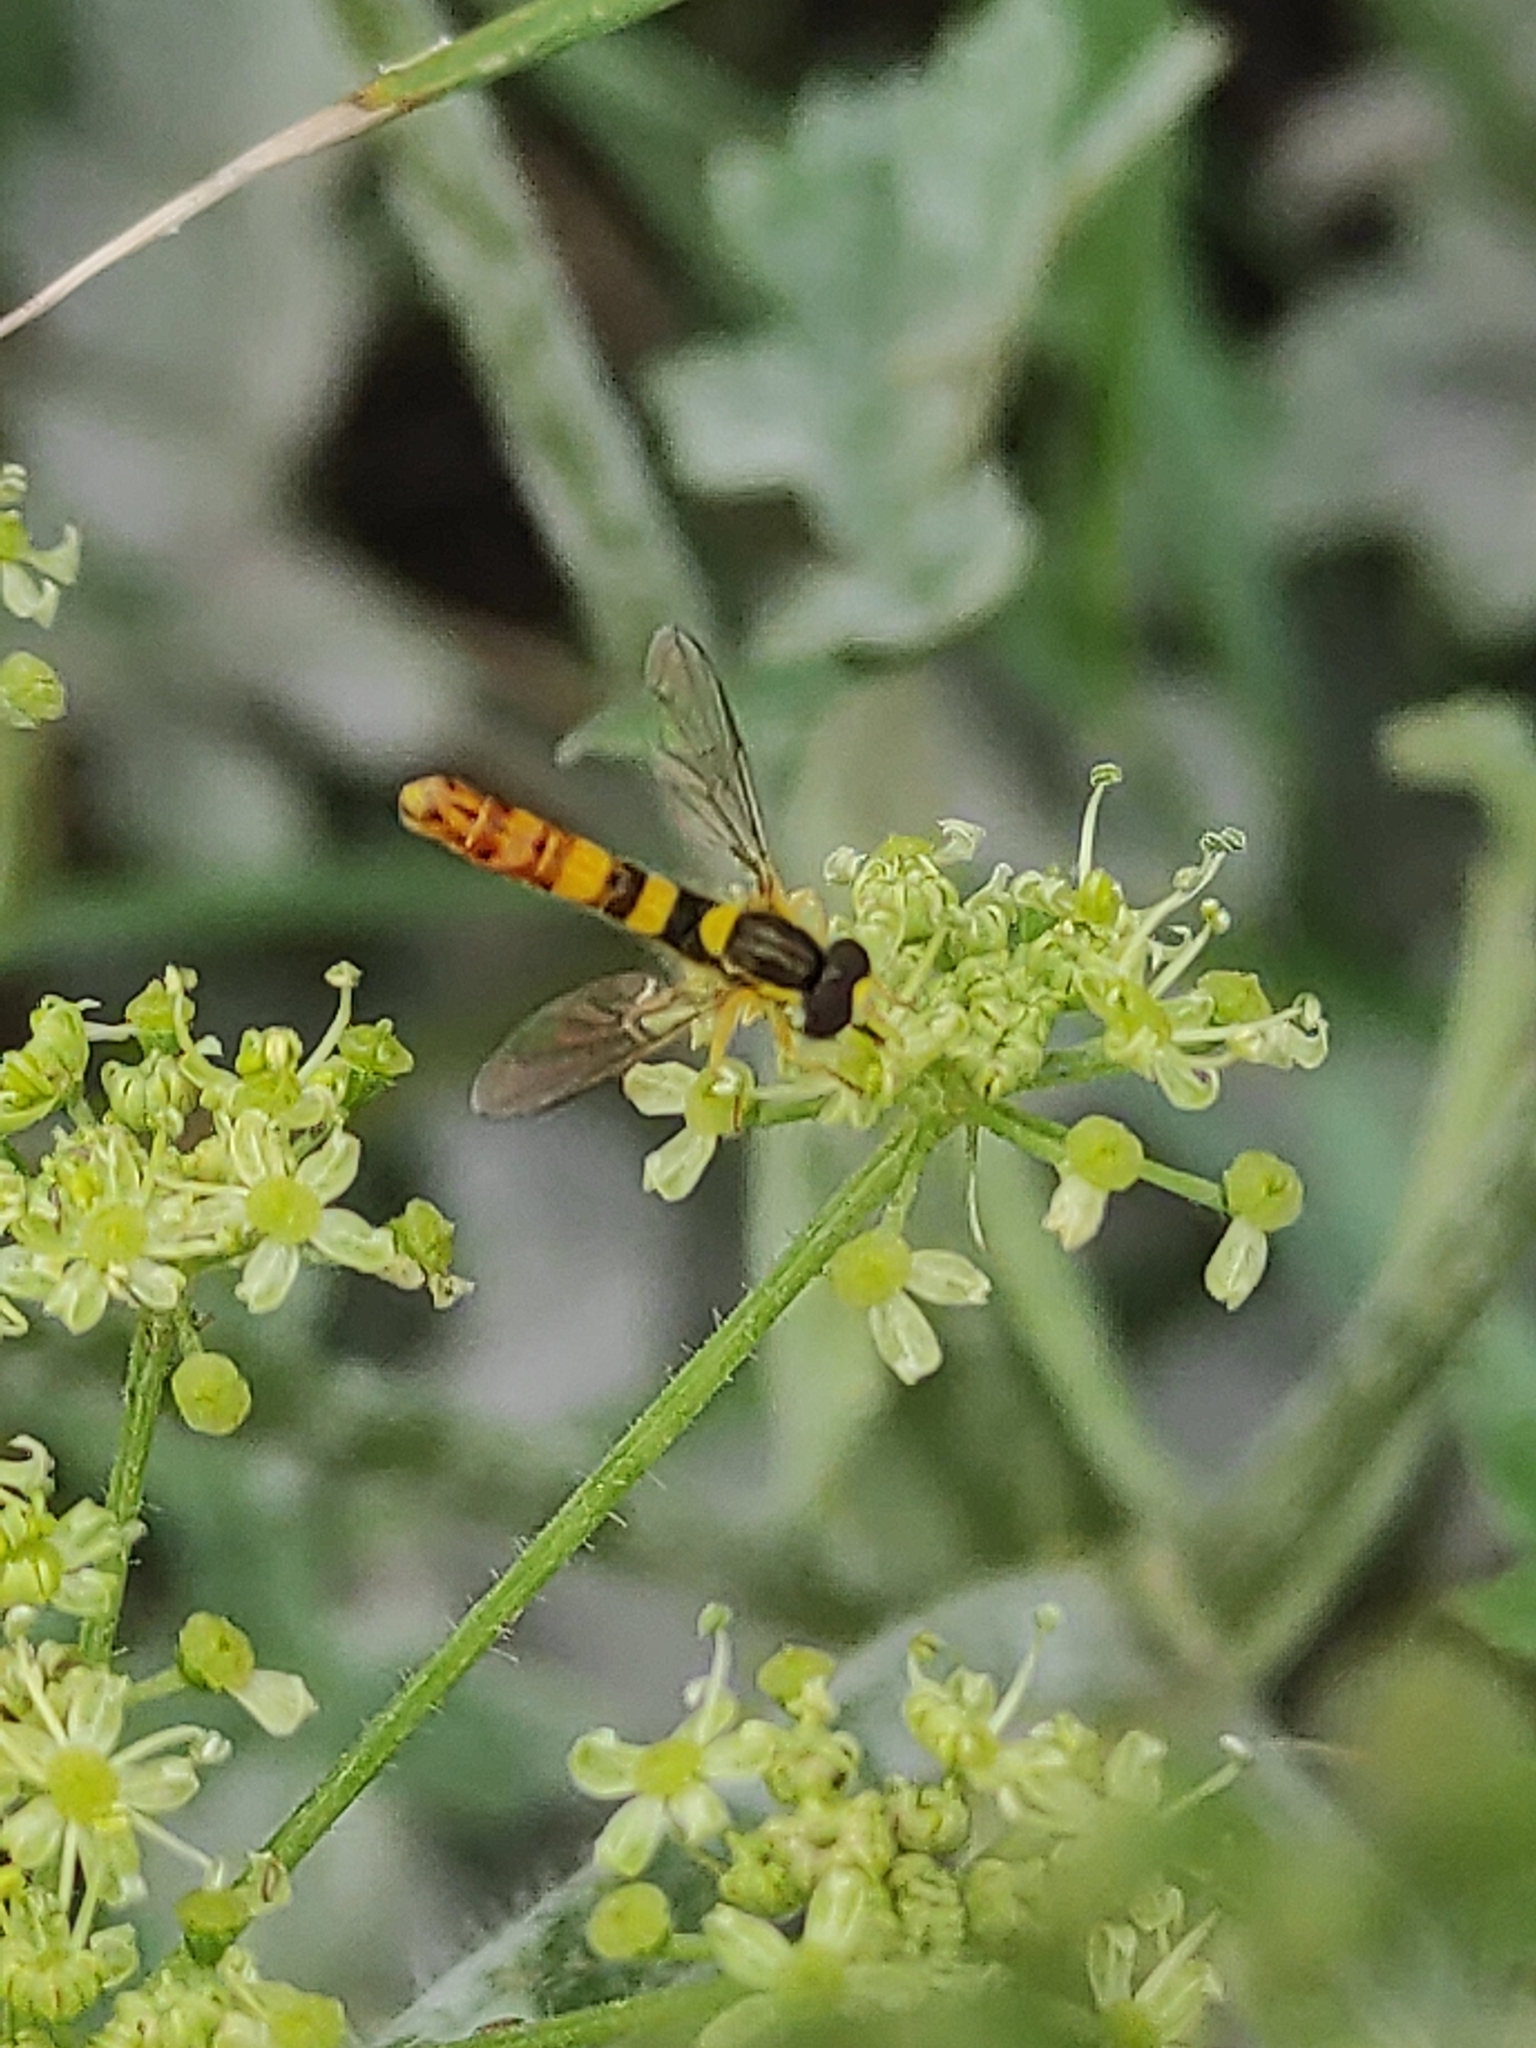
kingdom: Animalia
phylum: Arthropoda
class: Insecta
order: Diptera
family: Syrphidae
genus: Sphaerophoria
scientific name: Sphaerophoria scripta
